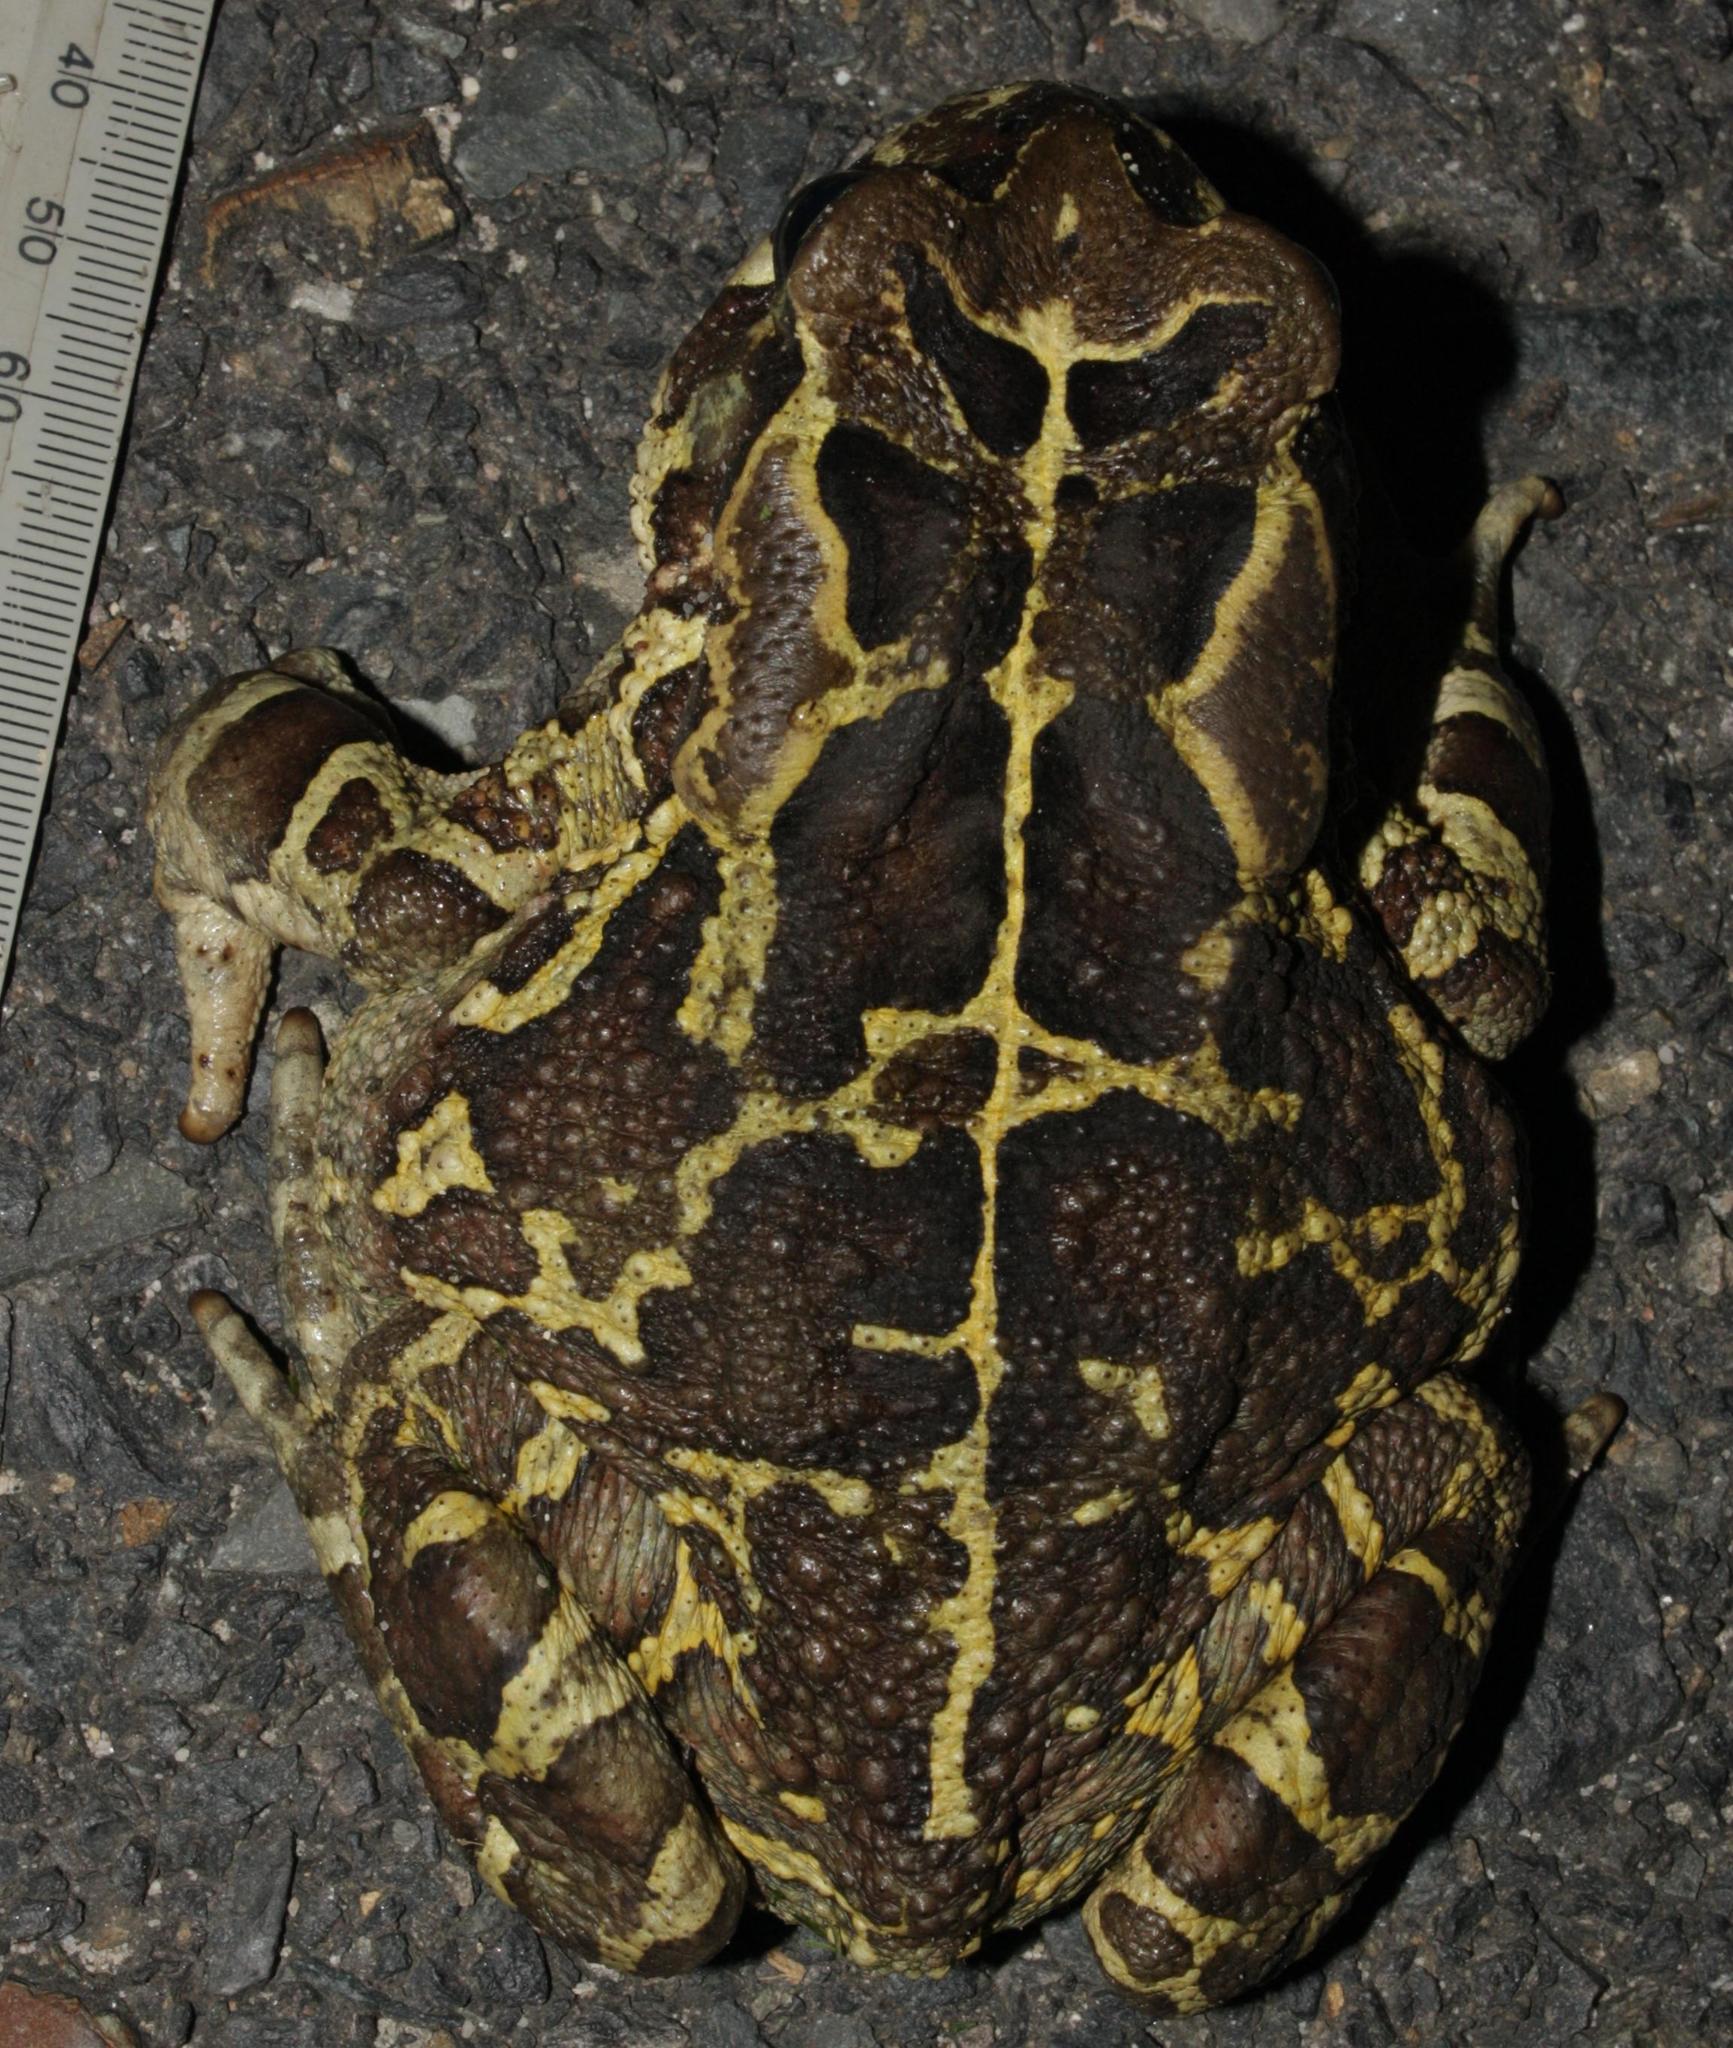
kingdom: Animalia
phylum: Chordata
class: Amphibia
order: Anura
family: Bufonidae
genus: Sclerophrys
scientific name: Sclerophrys pantherina
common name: Panther toad
